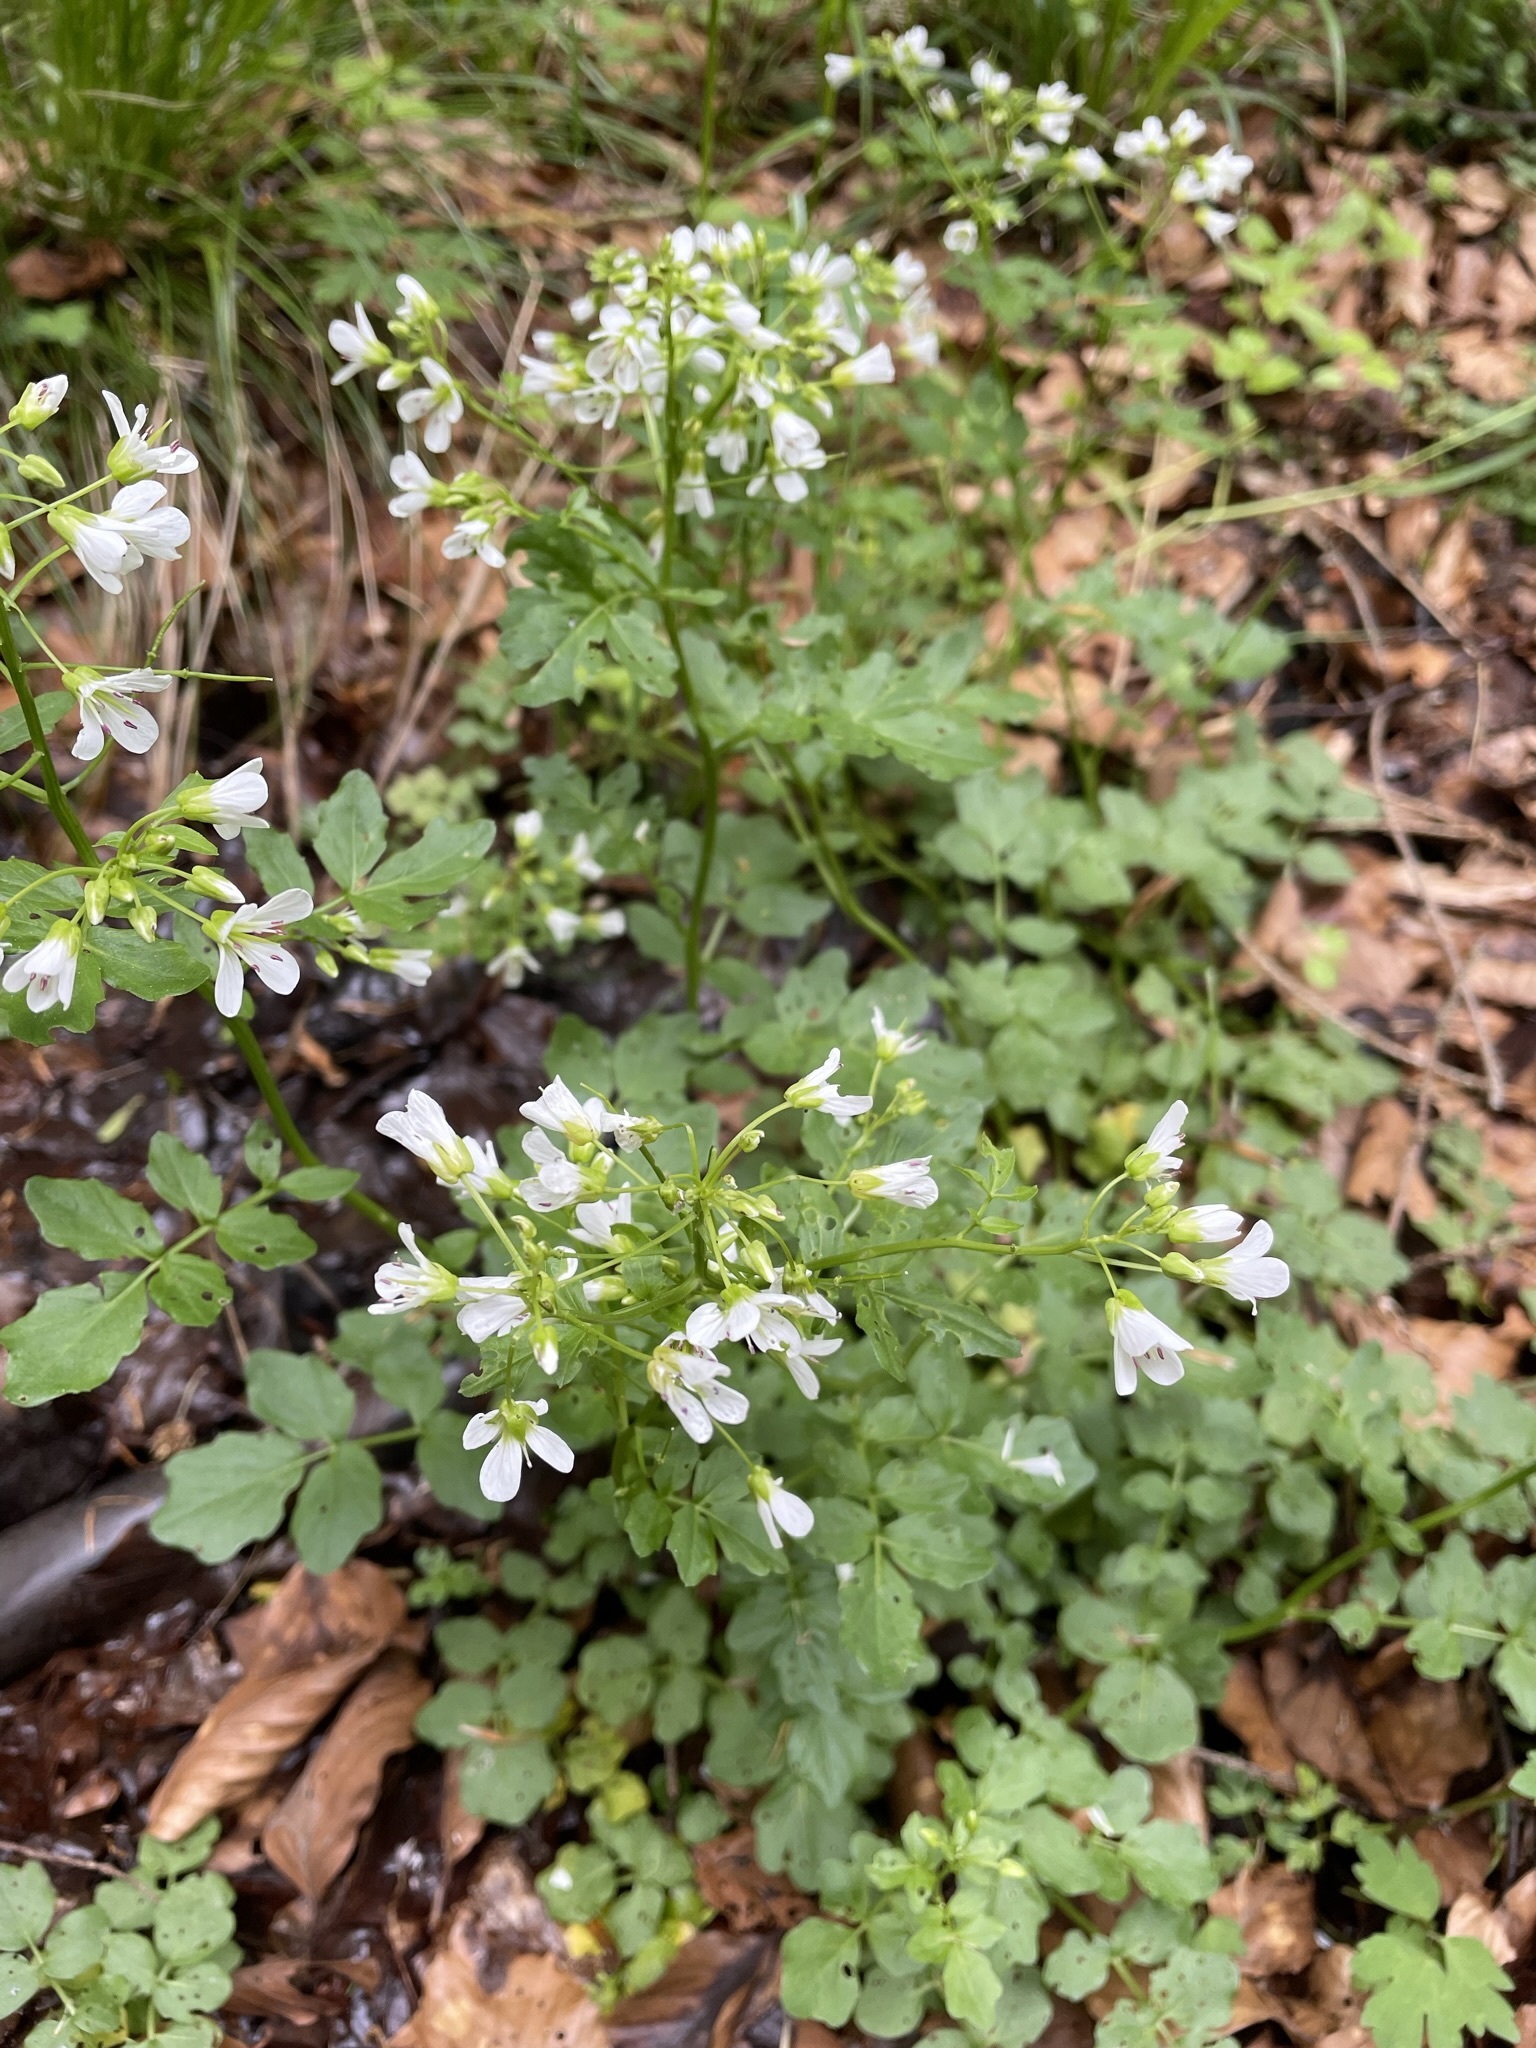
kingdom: Plantae
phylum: Tracheophyta
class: Magnoliopsida
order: Brassicales
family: Brassicaceae
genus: Cardamine
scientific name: Cardamine amara
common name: Large bitter-cress
